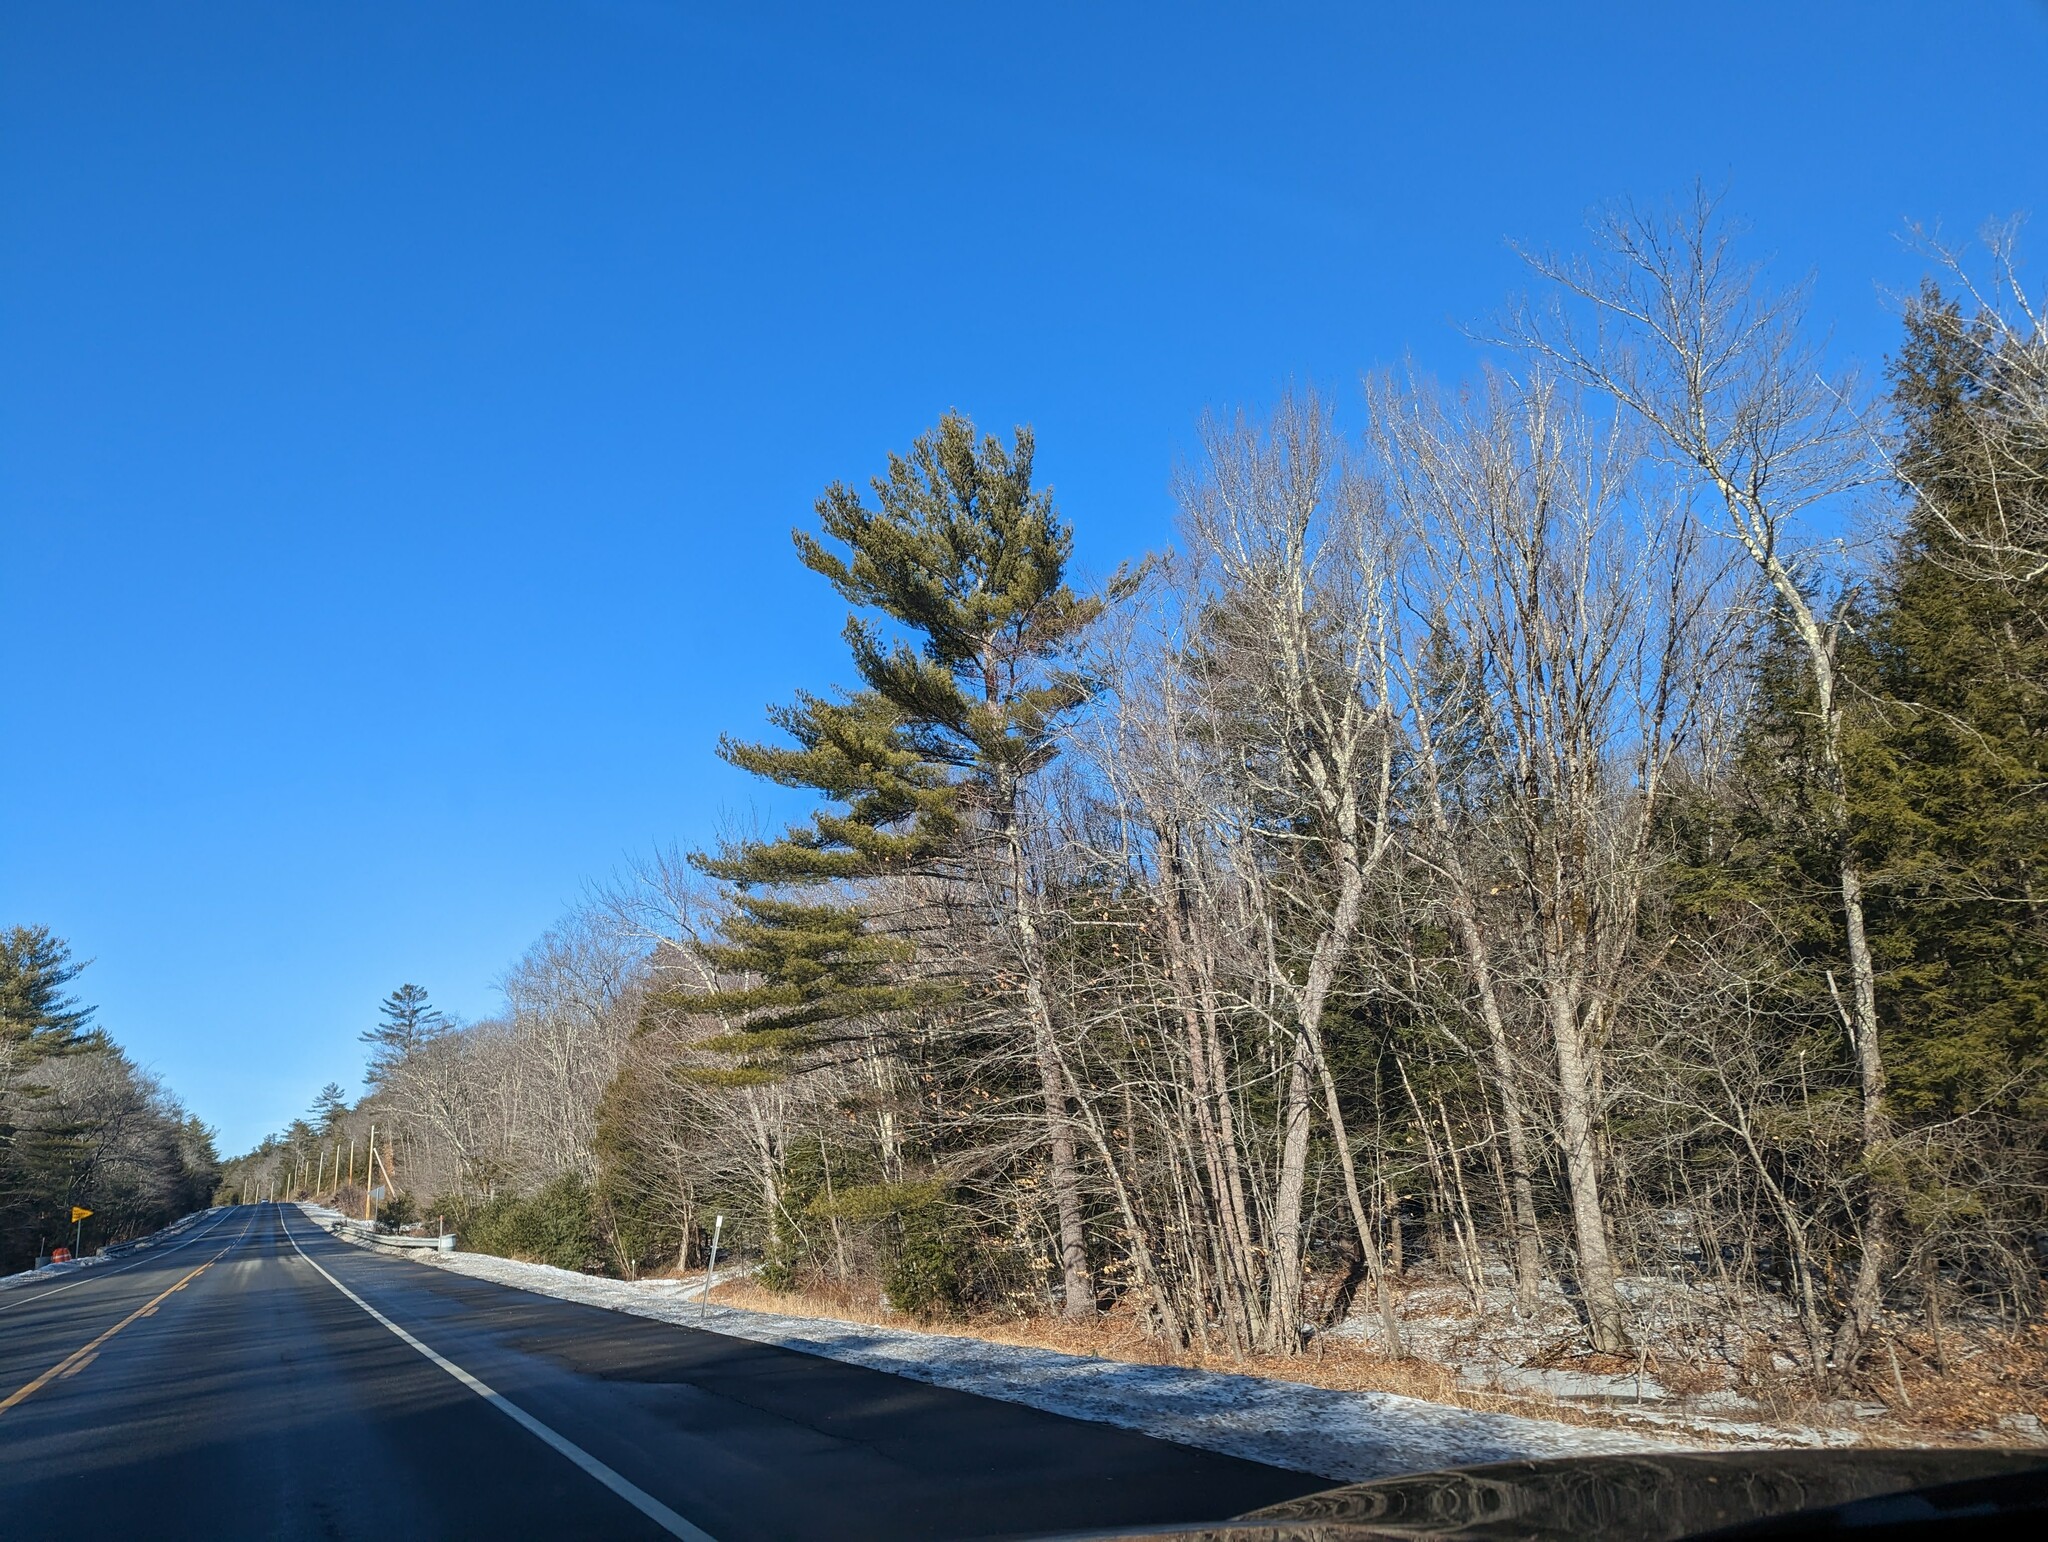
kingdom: Plantae
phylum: Tracheophyta
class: Pinopsida
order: Pinales
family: Pinaceae
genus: Pinus
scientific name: Pinus strobus
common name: Weymouth pine
